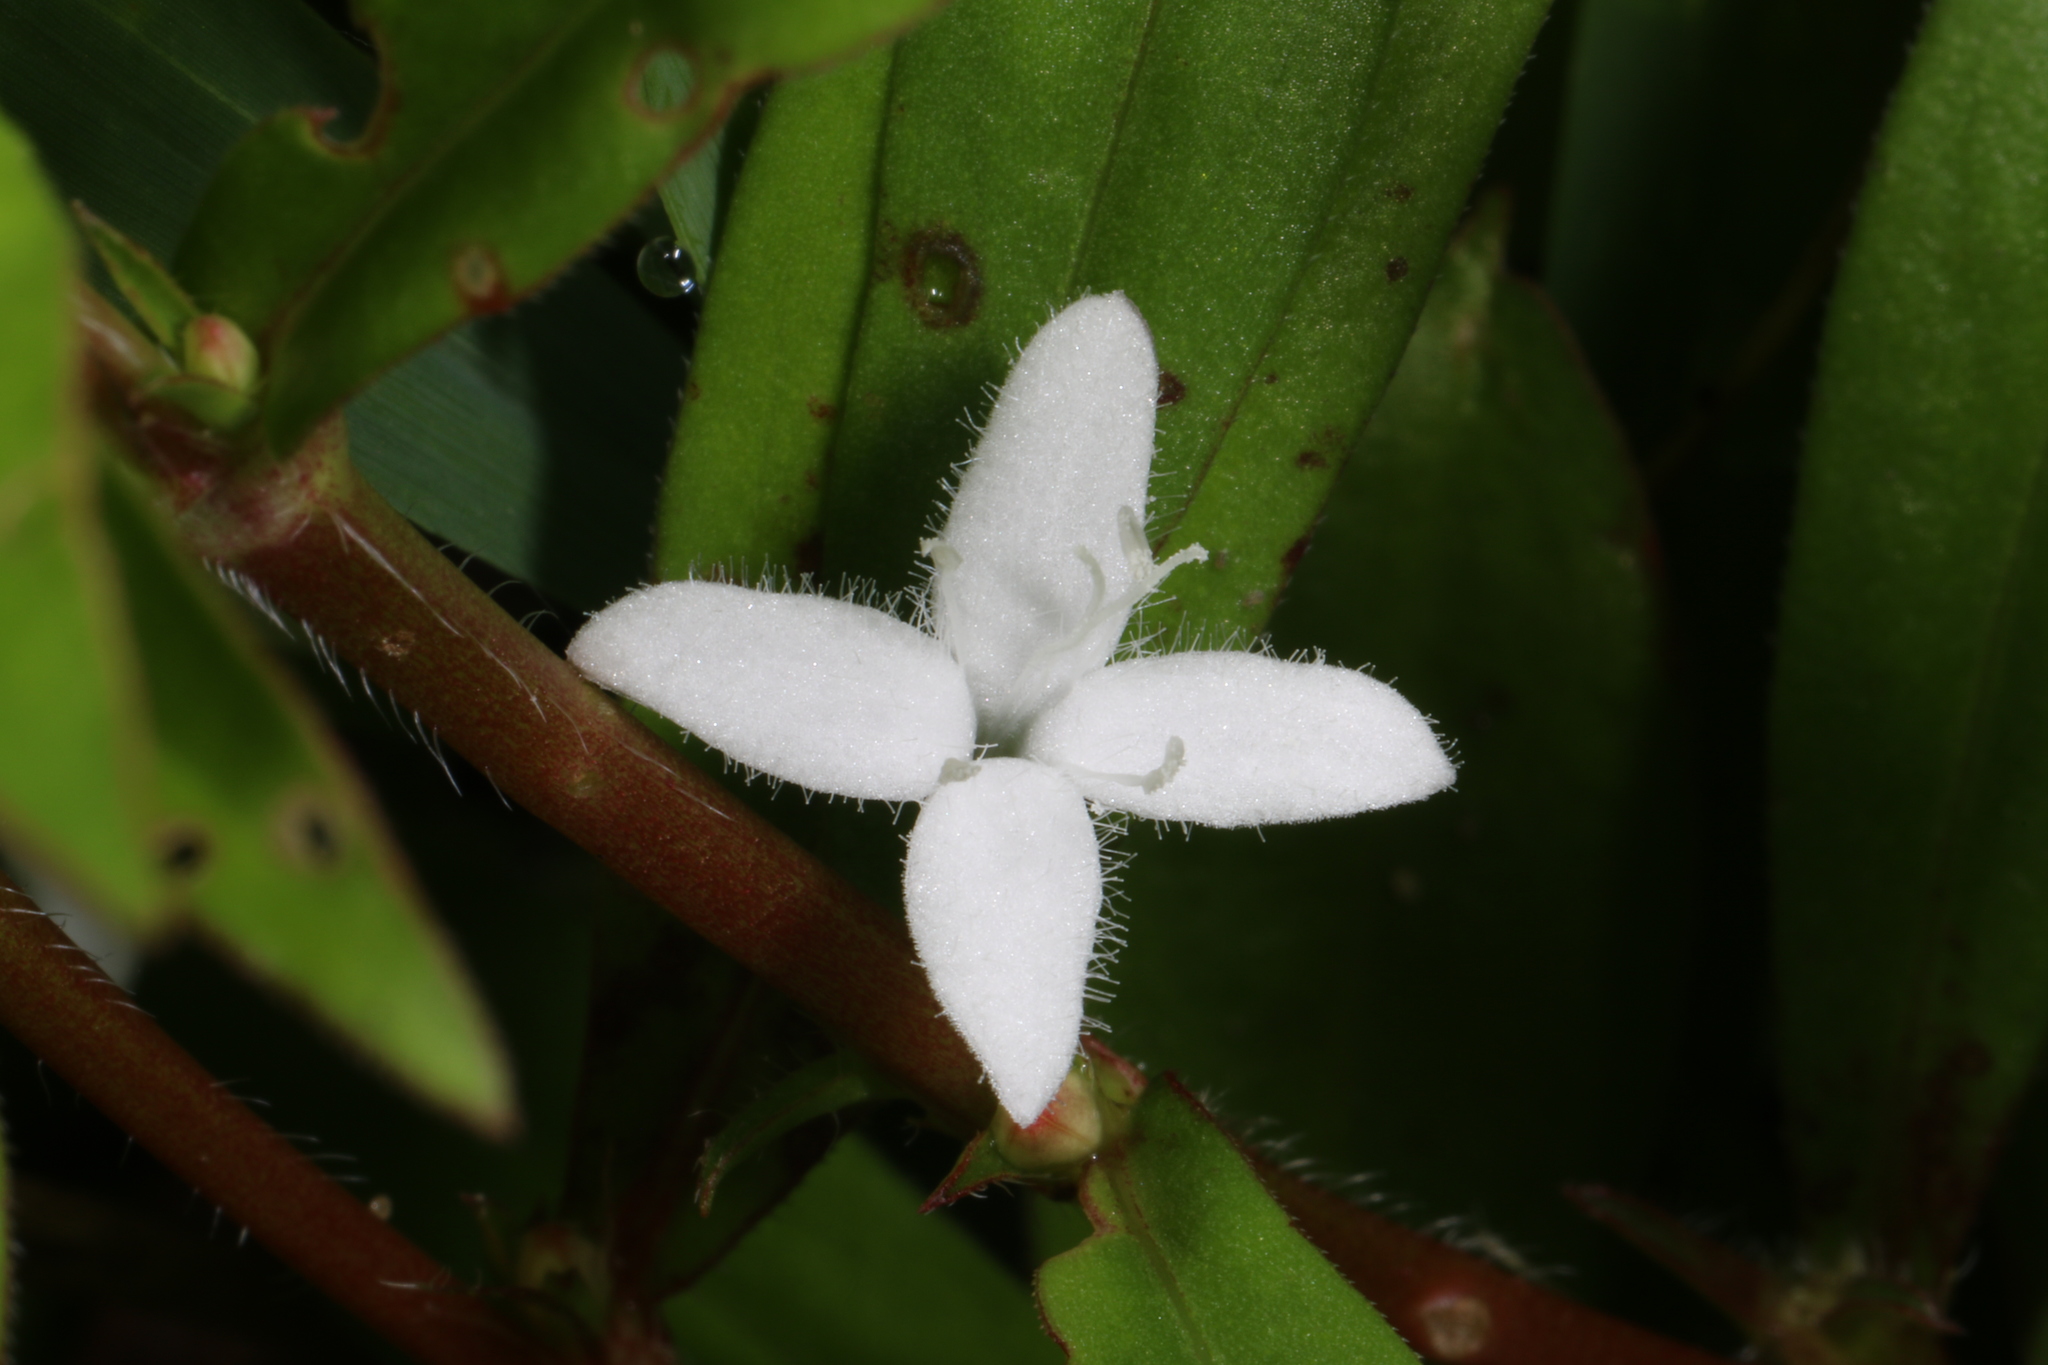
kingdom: Plantae
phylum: Tracheophyta
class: Magnoliopsida
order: Gentianales
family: Rubiaceae
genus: Diodia
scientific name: Diodia virginiana
